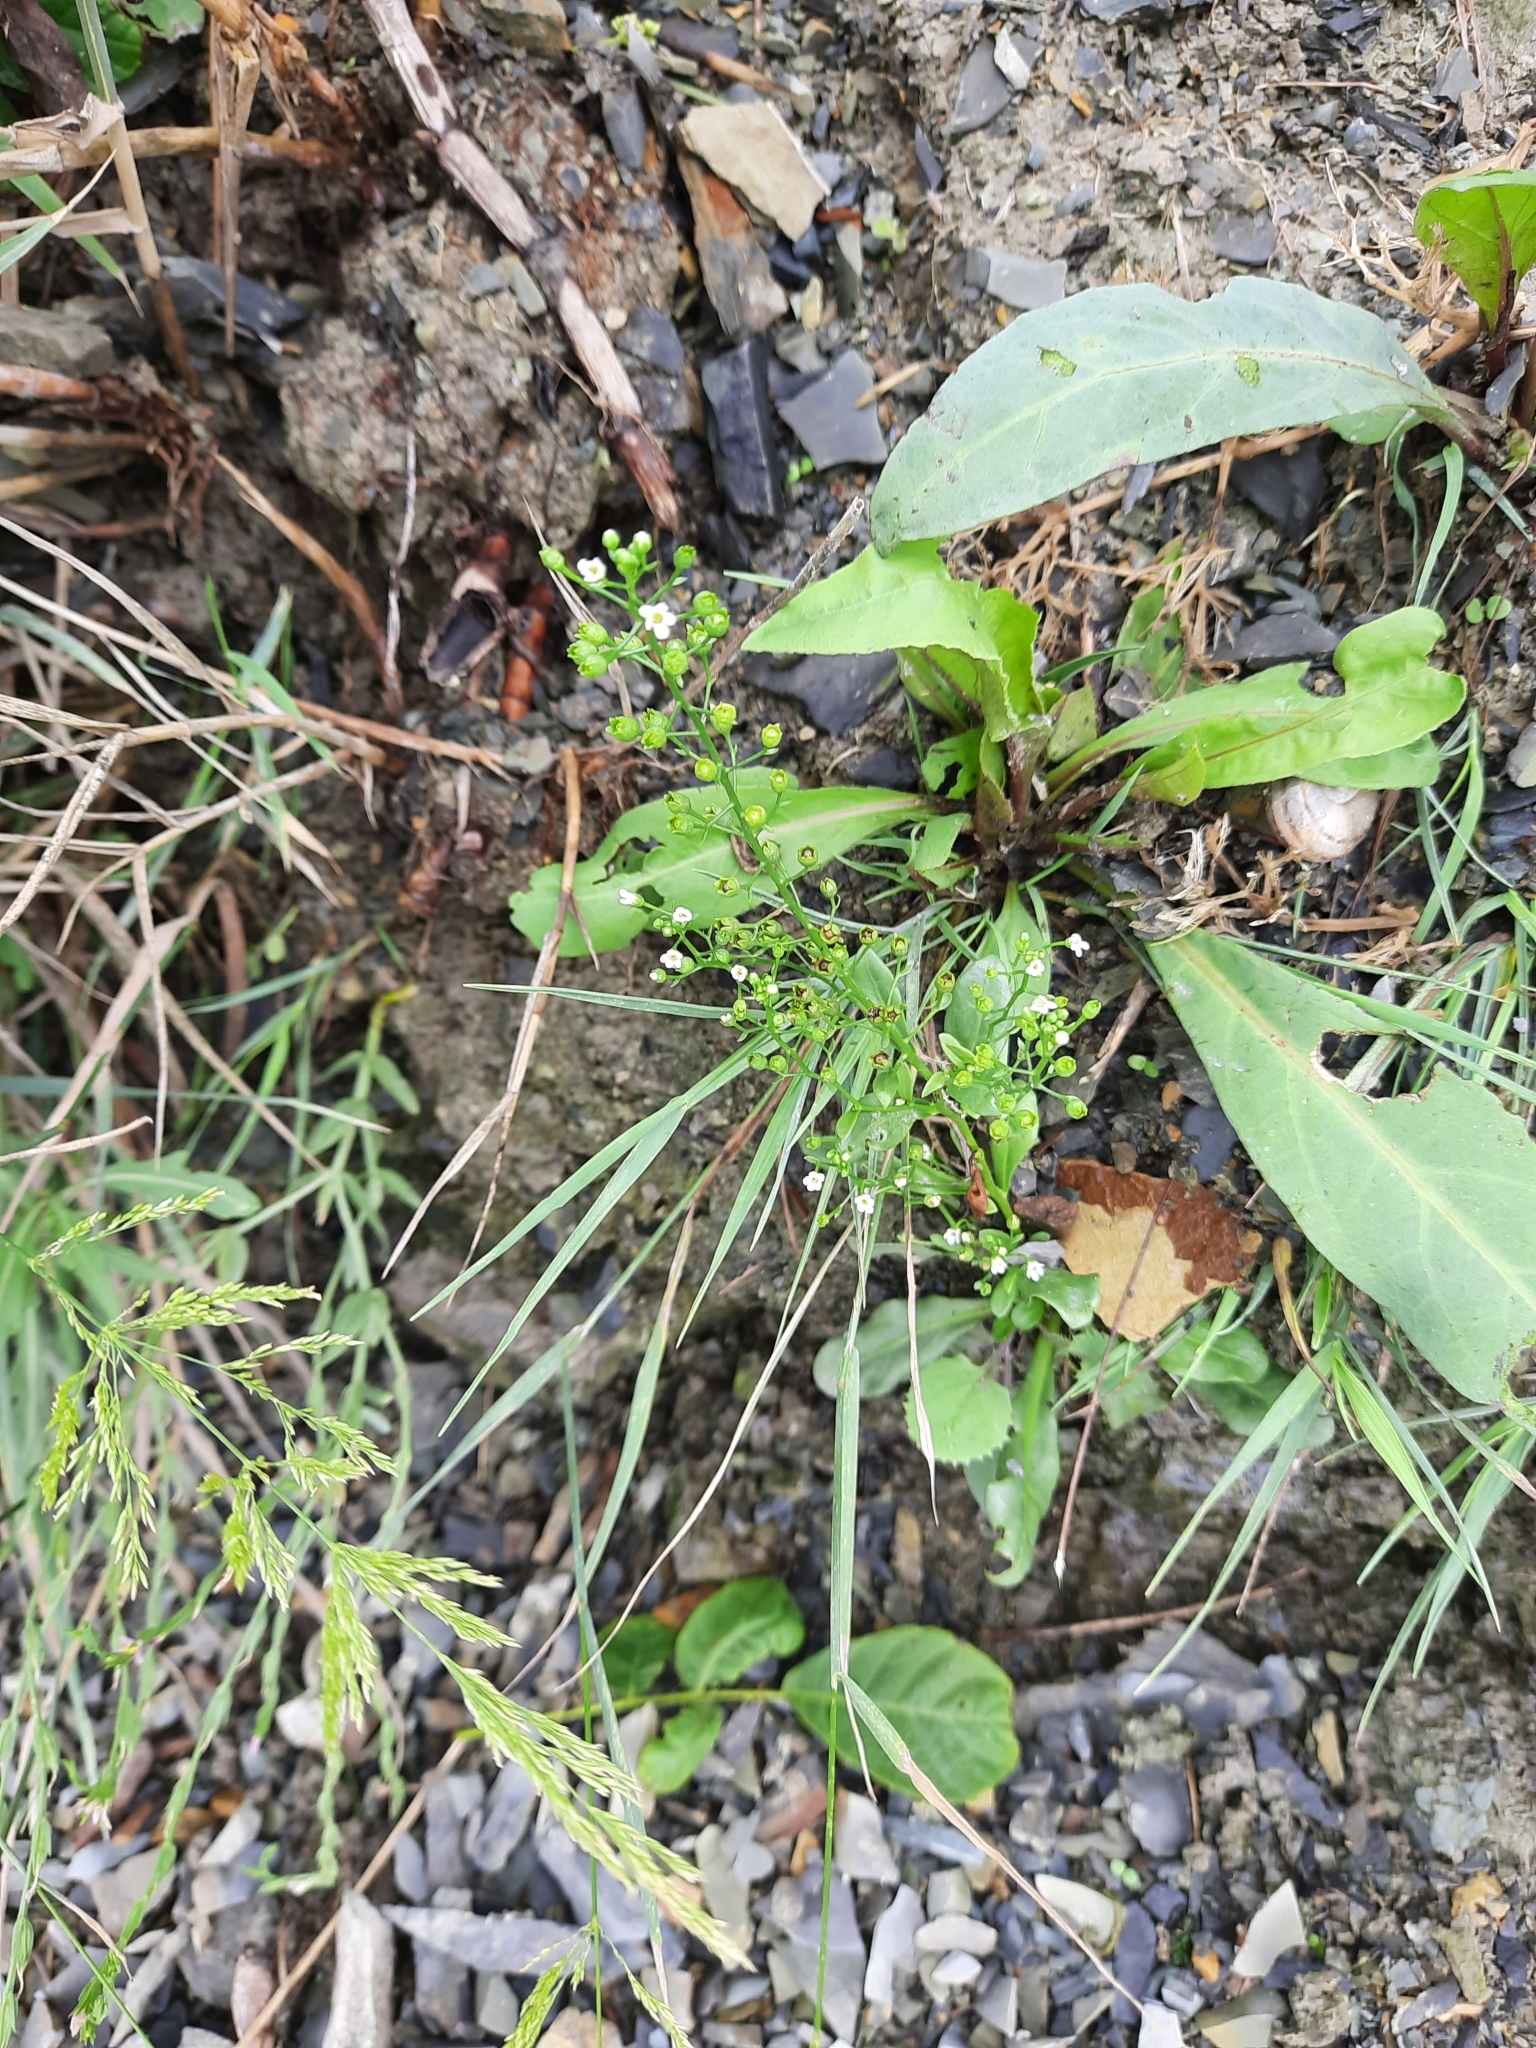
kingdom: Plantae
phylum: Tracheophyta
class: Magnoliopsida
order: Ericales
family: Primulaceae
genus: Samolus
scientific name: Samolus valerandi
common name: Brookweed
